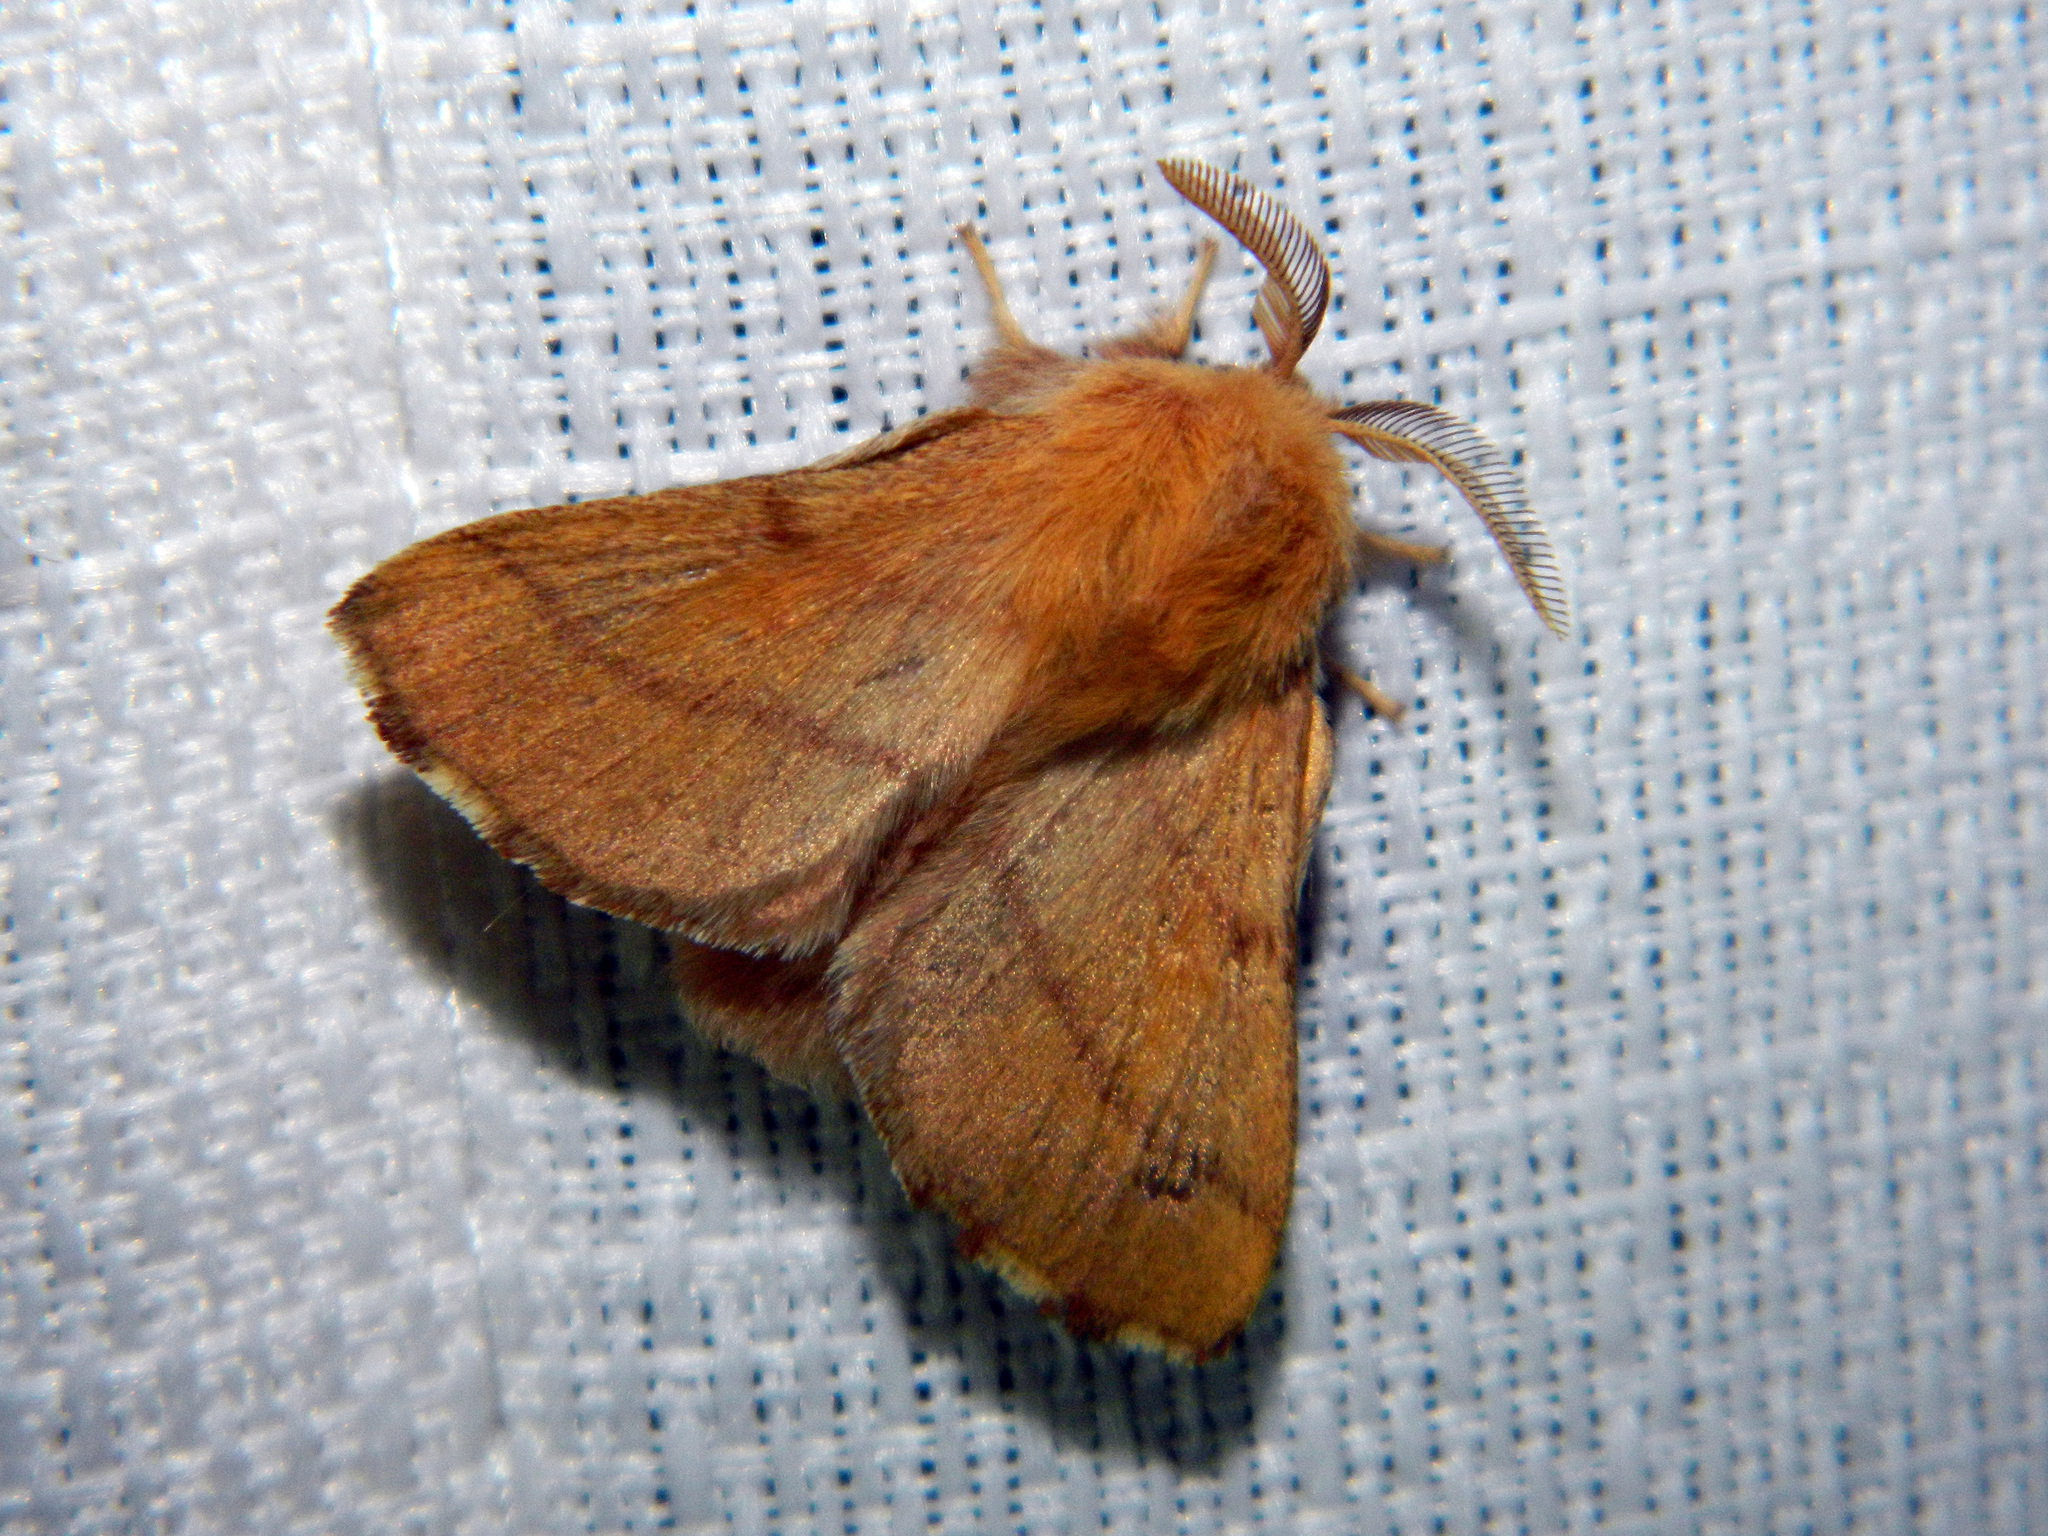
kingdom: Animalia
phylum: Arthropoda
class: Insecta
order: Lepidoptera
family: Lasiocampidae
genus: Malacosoma
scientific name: Malacosoma disstria
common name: Forest tent caterpillar
